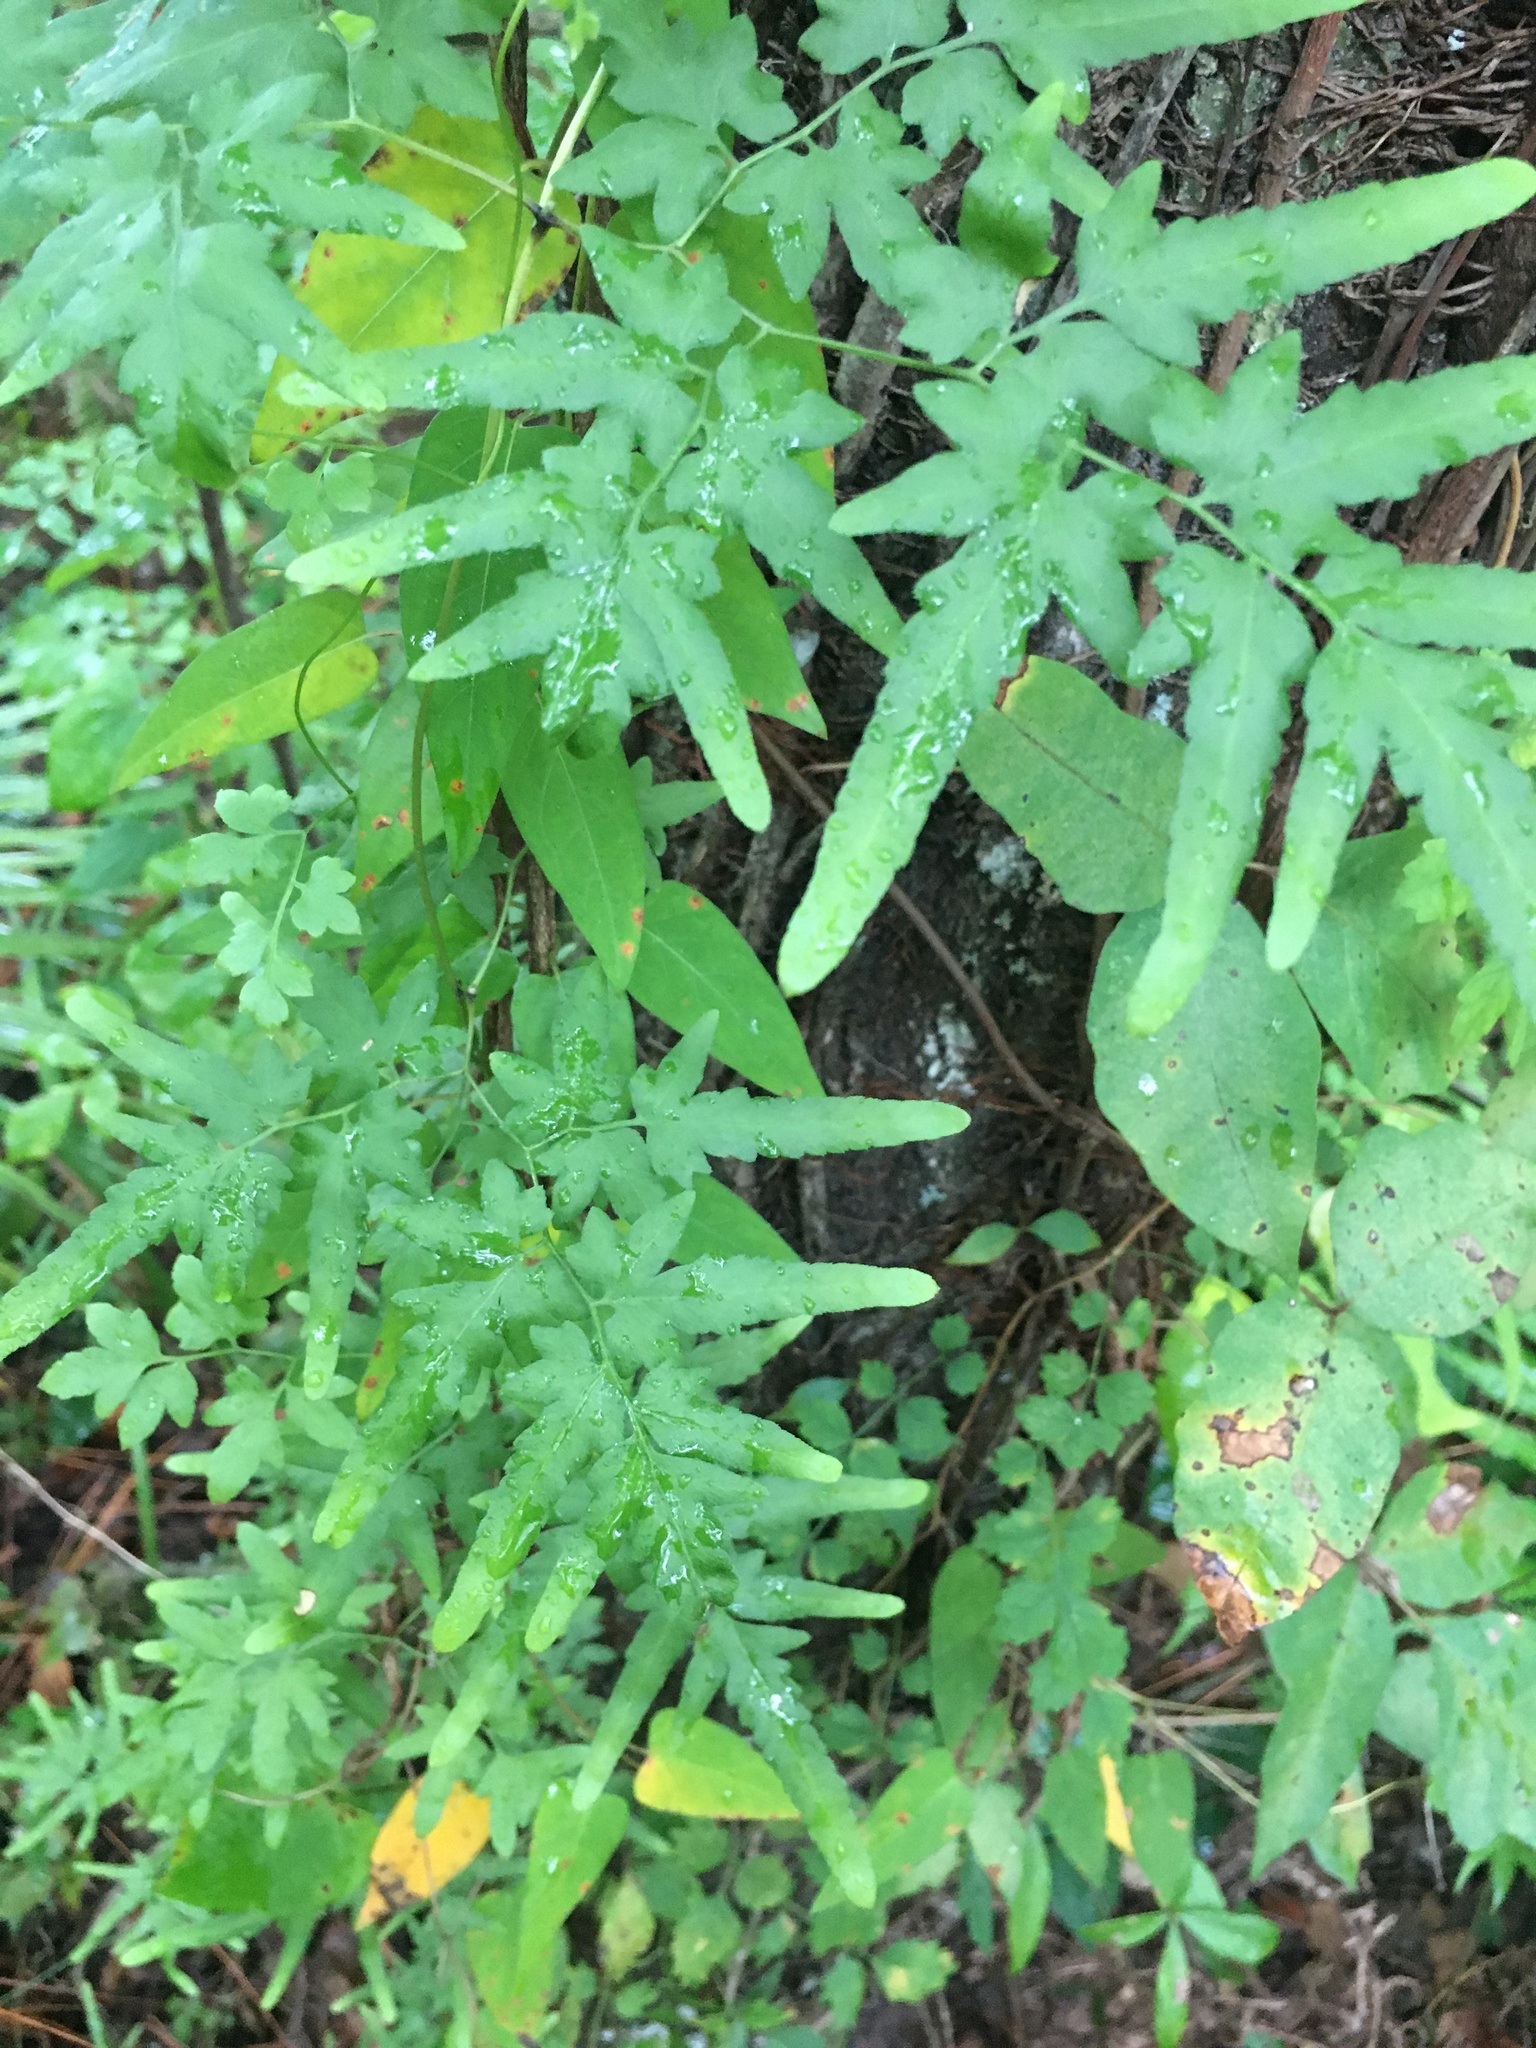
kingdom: Plantae
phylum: Tracheophyta
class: Polypodiopsida
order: Schizaeales
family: Lygodiaceae
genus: Lygodium
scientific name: Lygodium japonicum
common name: Japanese climbing fern
